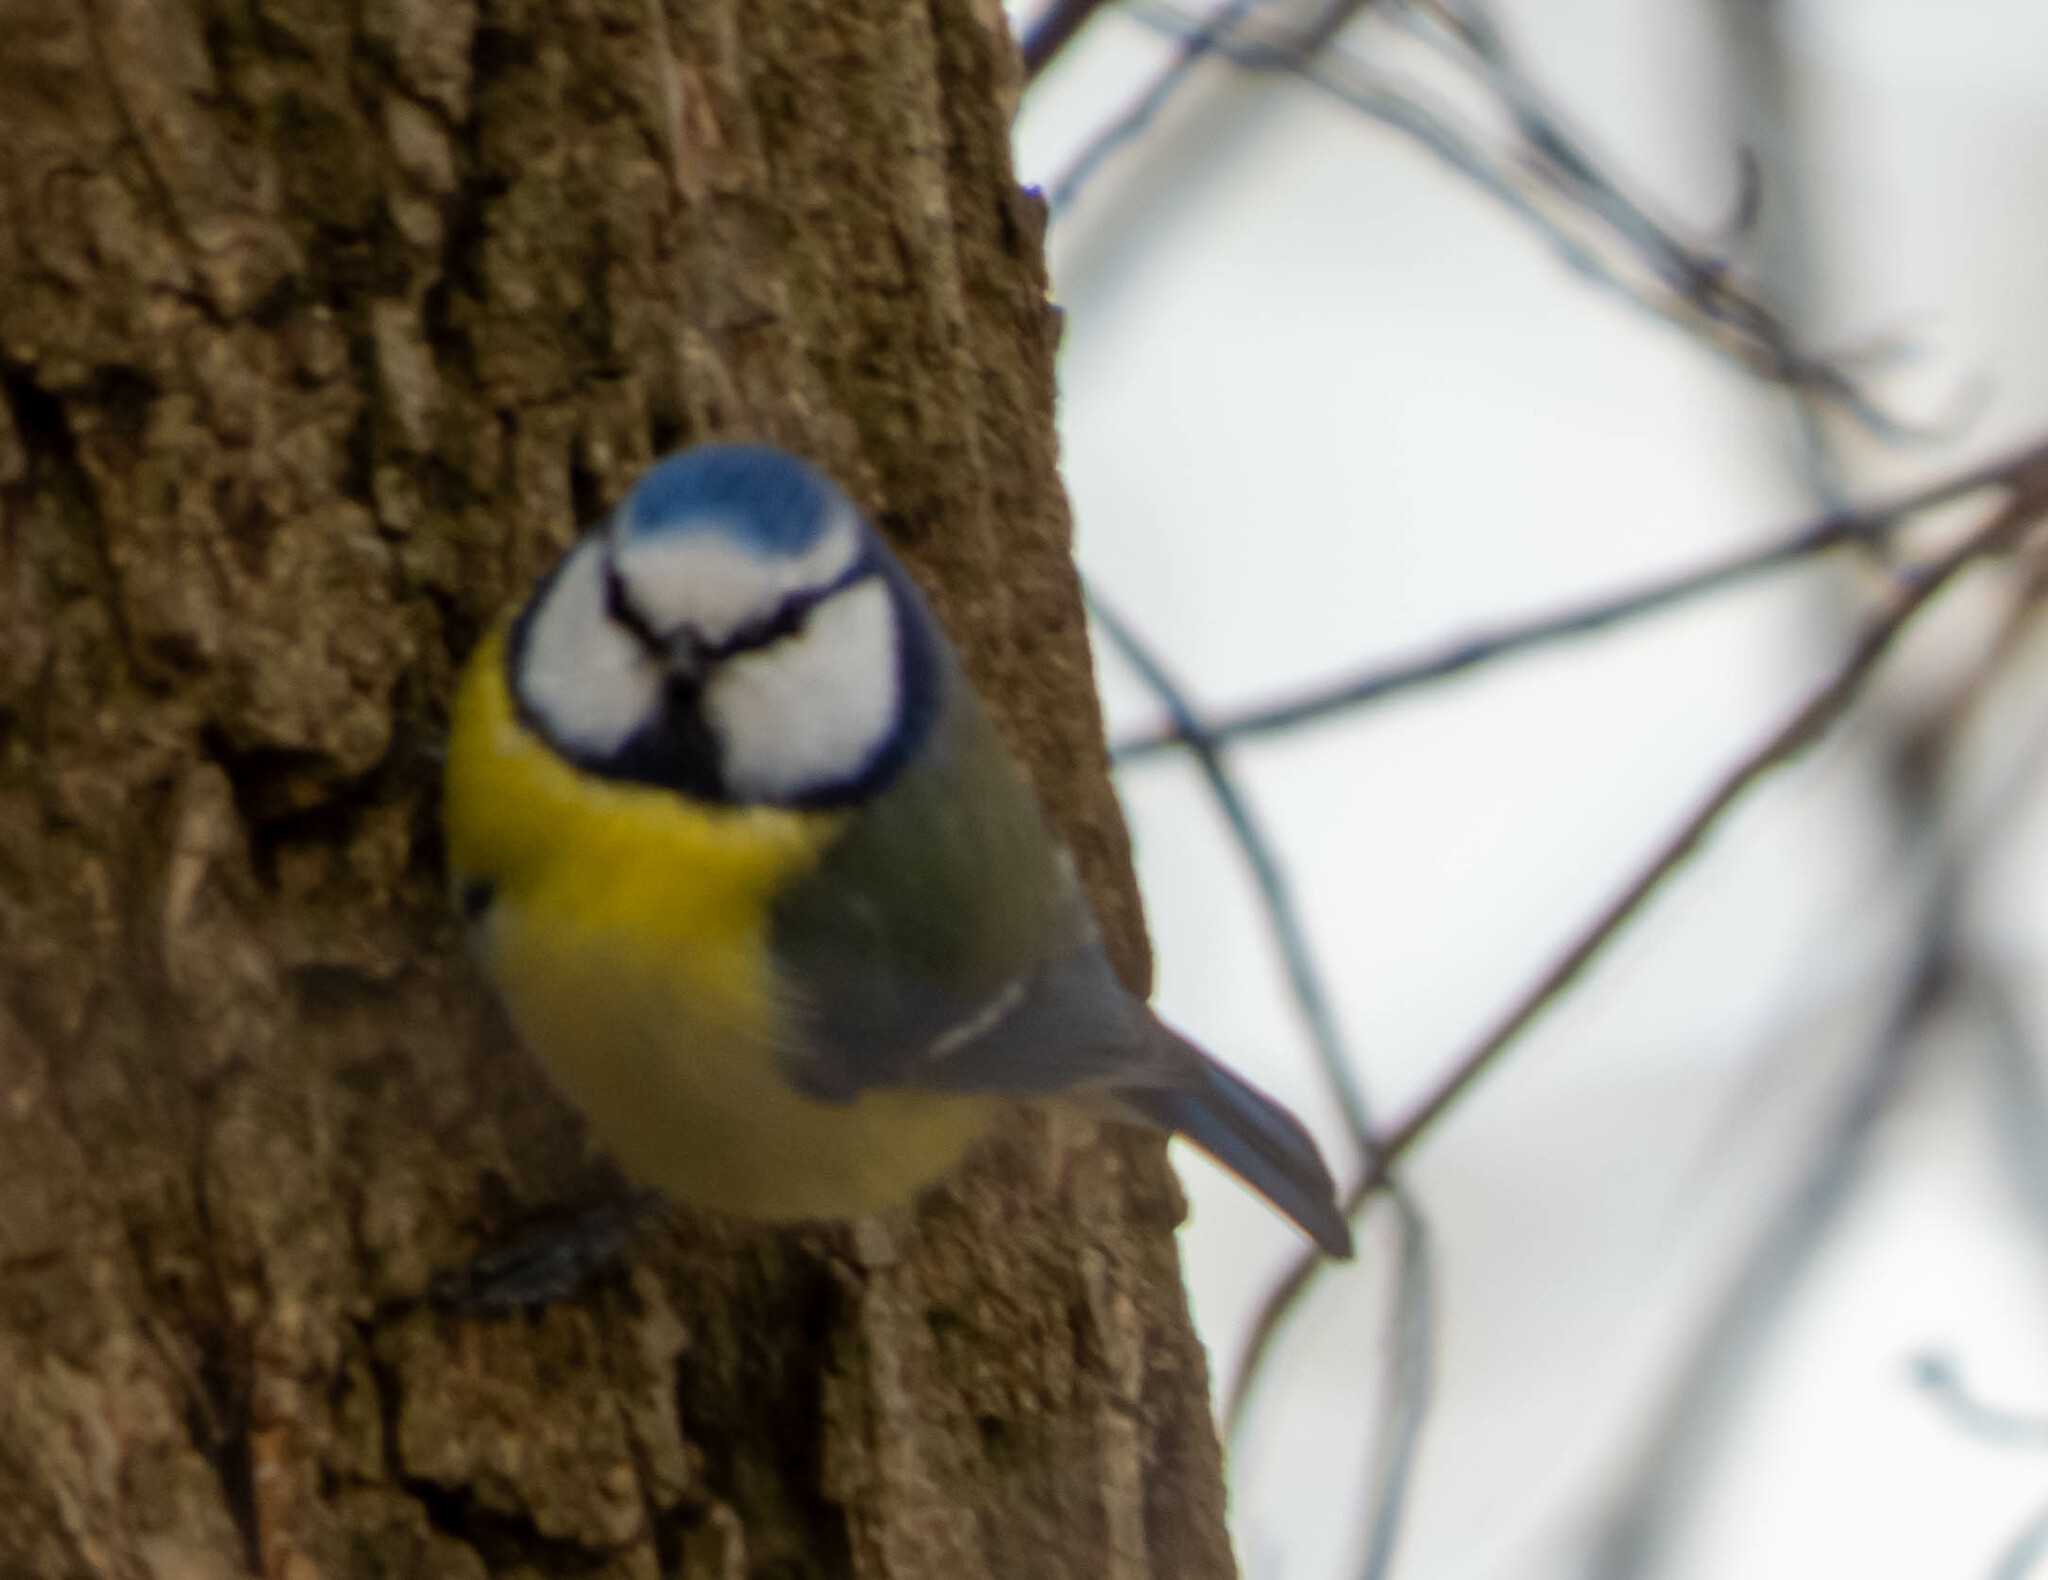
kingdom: Animalia
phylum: Chordata
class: Aves
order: Passeriformes
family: Paridae
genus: Cyanistes
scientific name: Cyanistes caeruleus
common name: Eurasian blue tit
